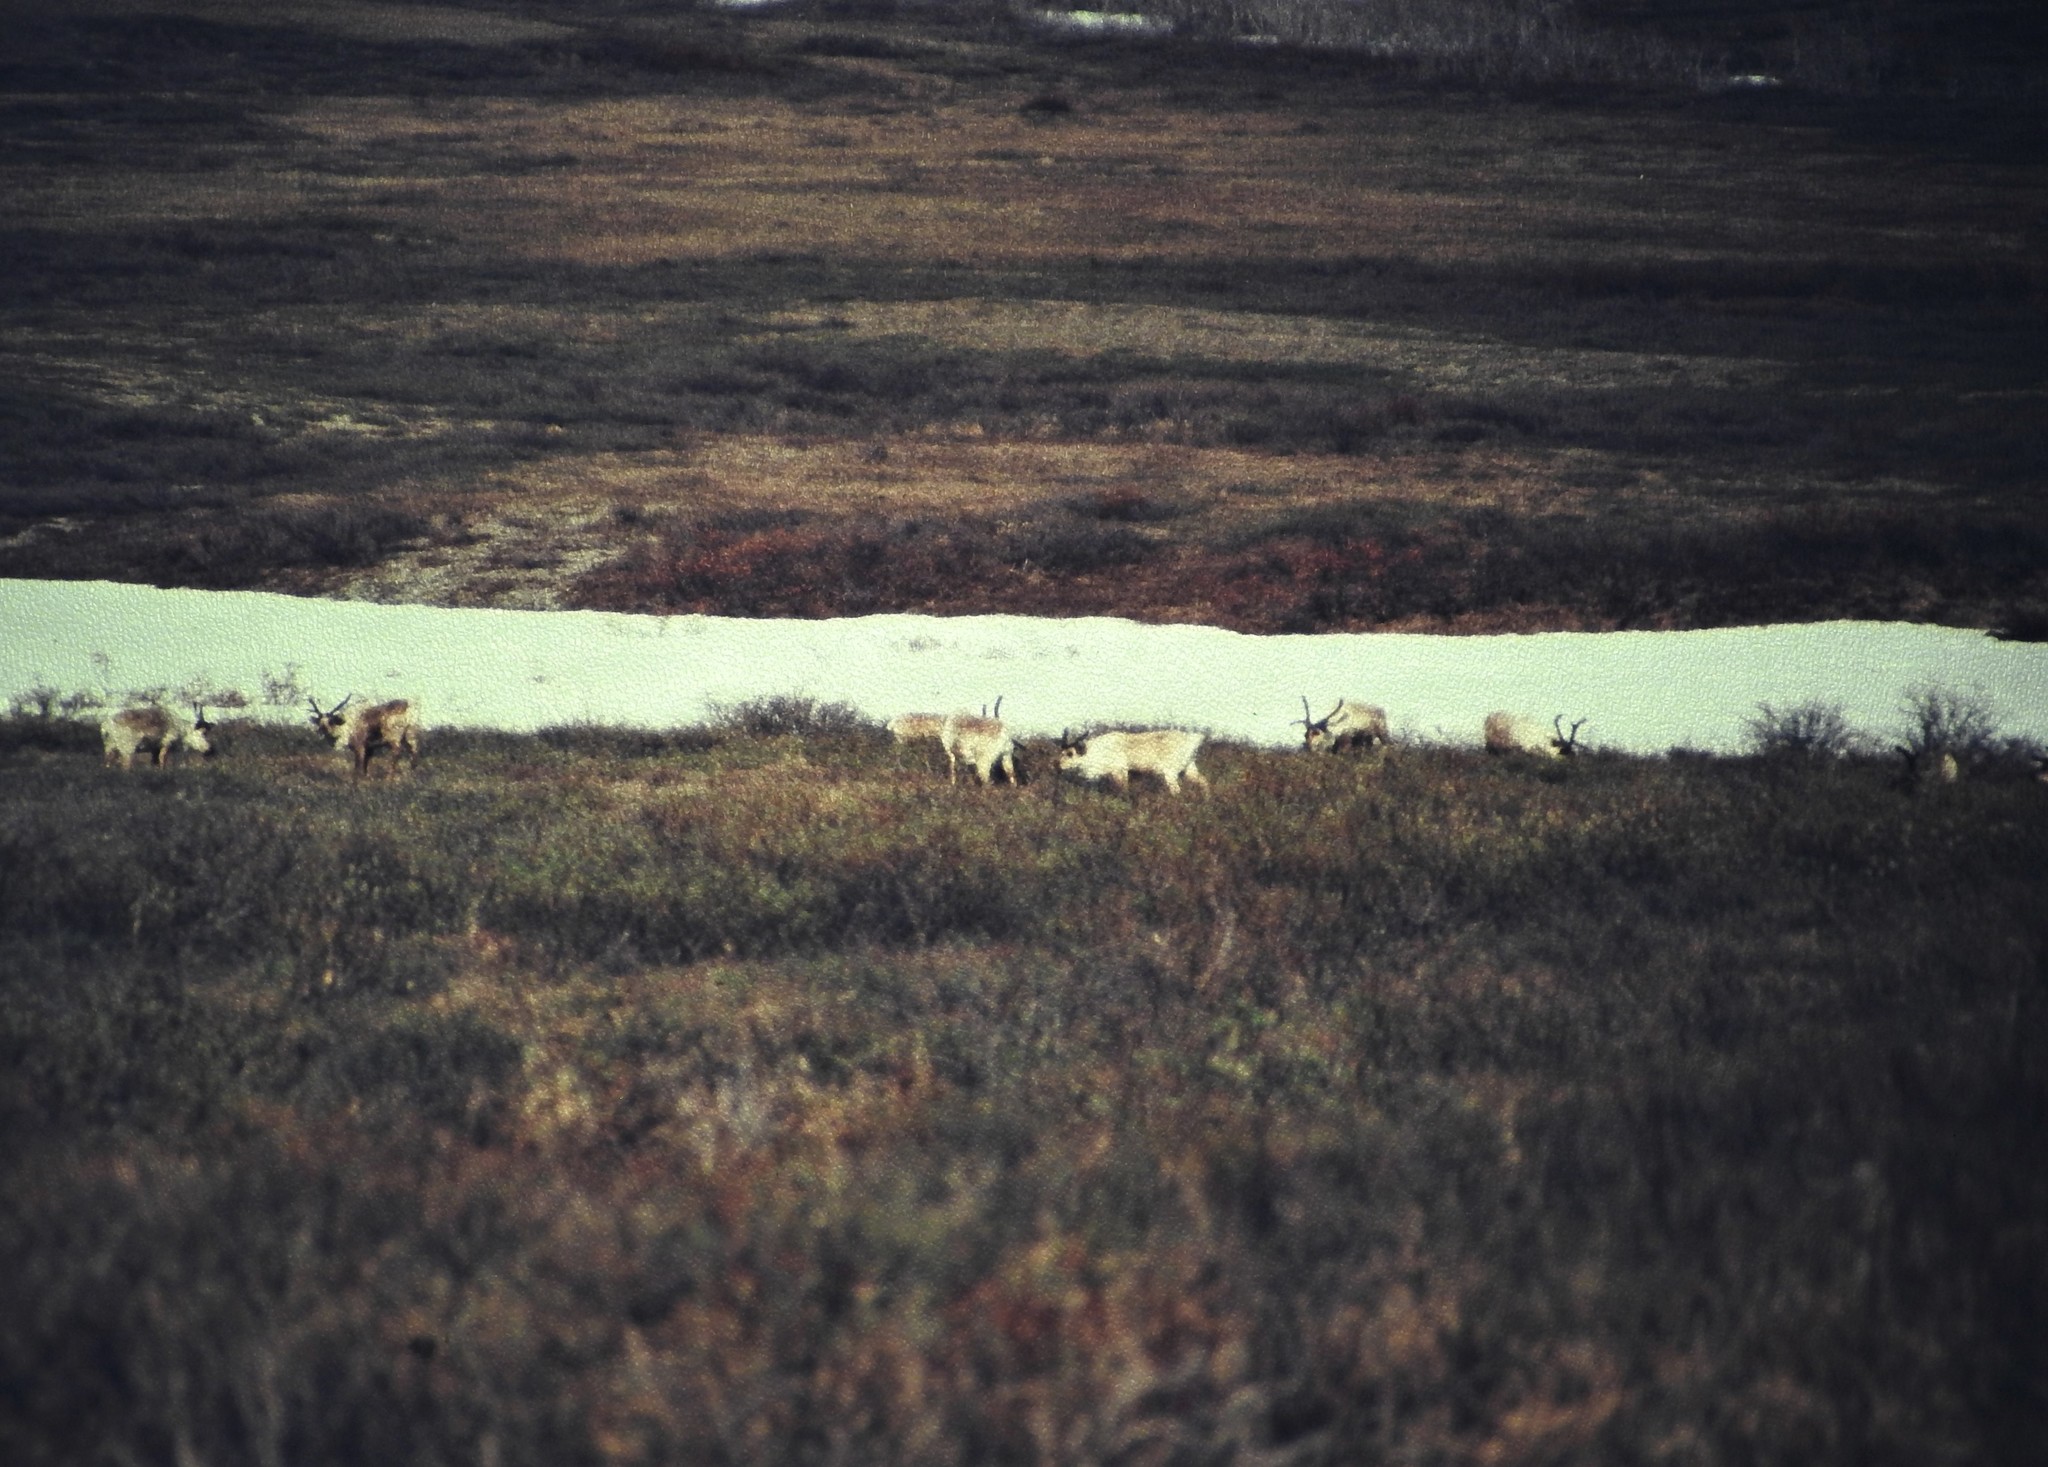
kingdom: Animalia
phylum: Chordata
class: Mammalia
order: Artiodactyla
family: Cervidae
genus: Rangifer
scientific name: Rangifer tarandus
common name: Reindeer
